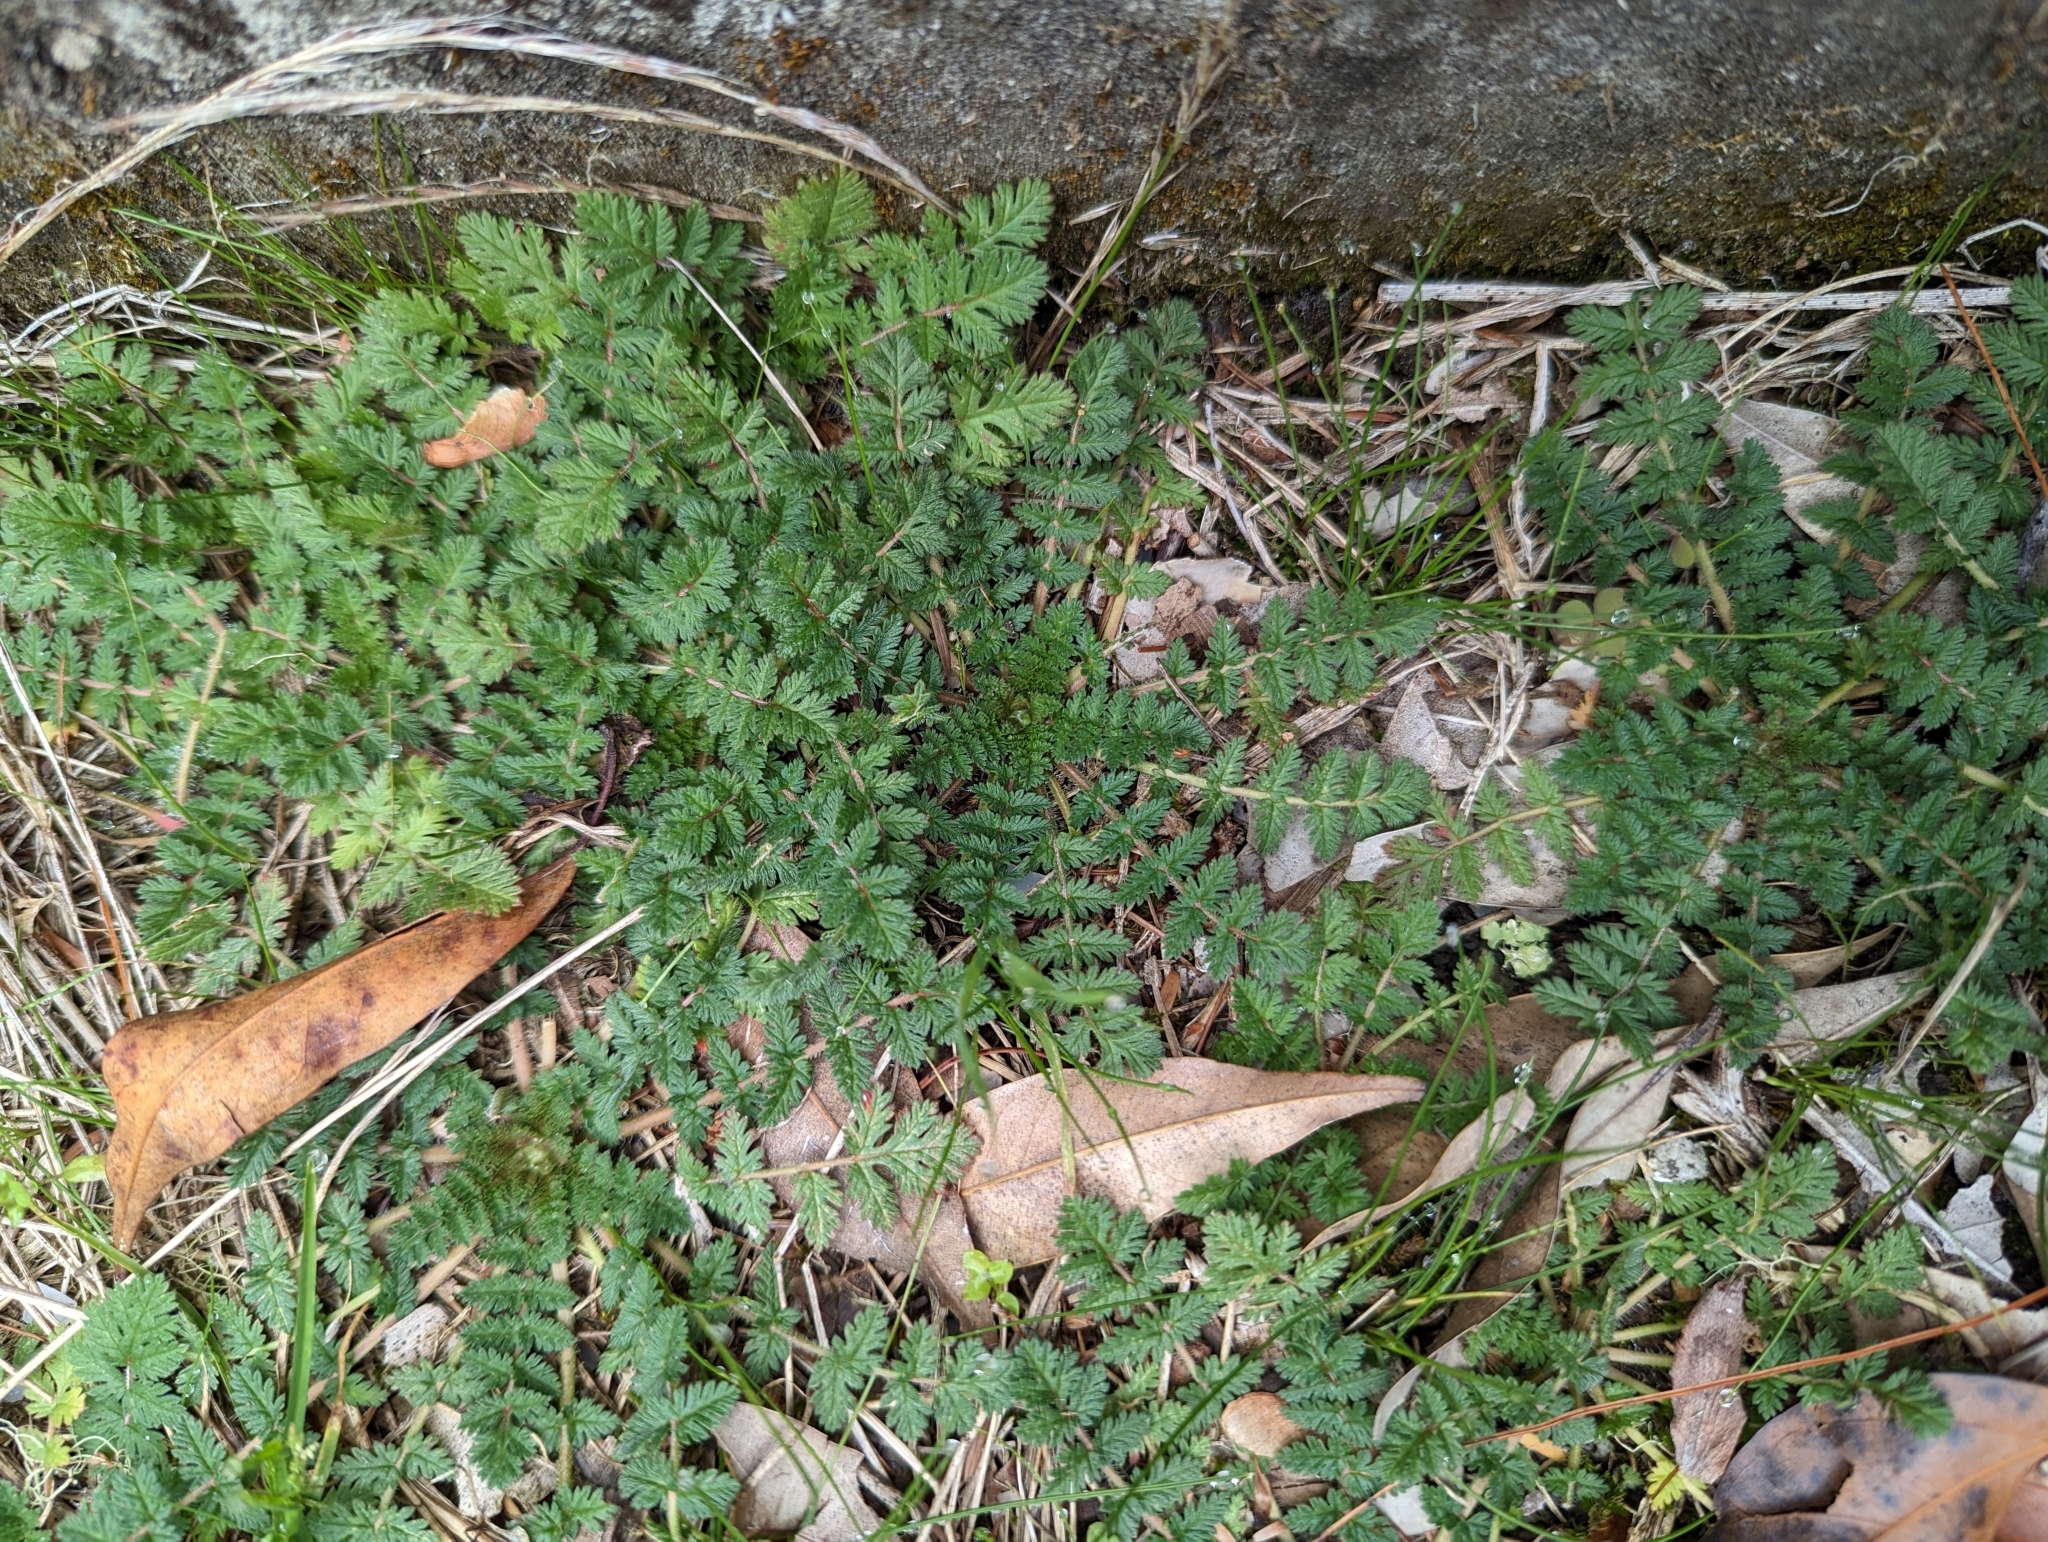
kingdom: Plantae
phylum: Tracheophyta
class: Magnoliopsida
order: Geraniales
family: Geraniaceae
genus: Erodium
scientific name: Erodium cicutarium
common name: Common stork's-bill
